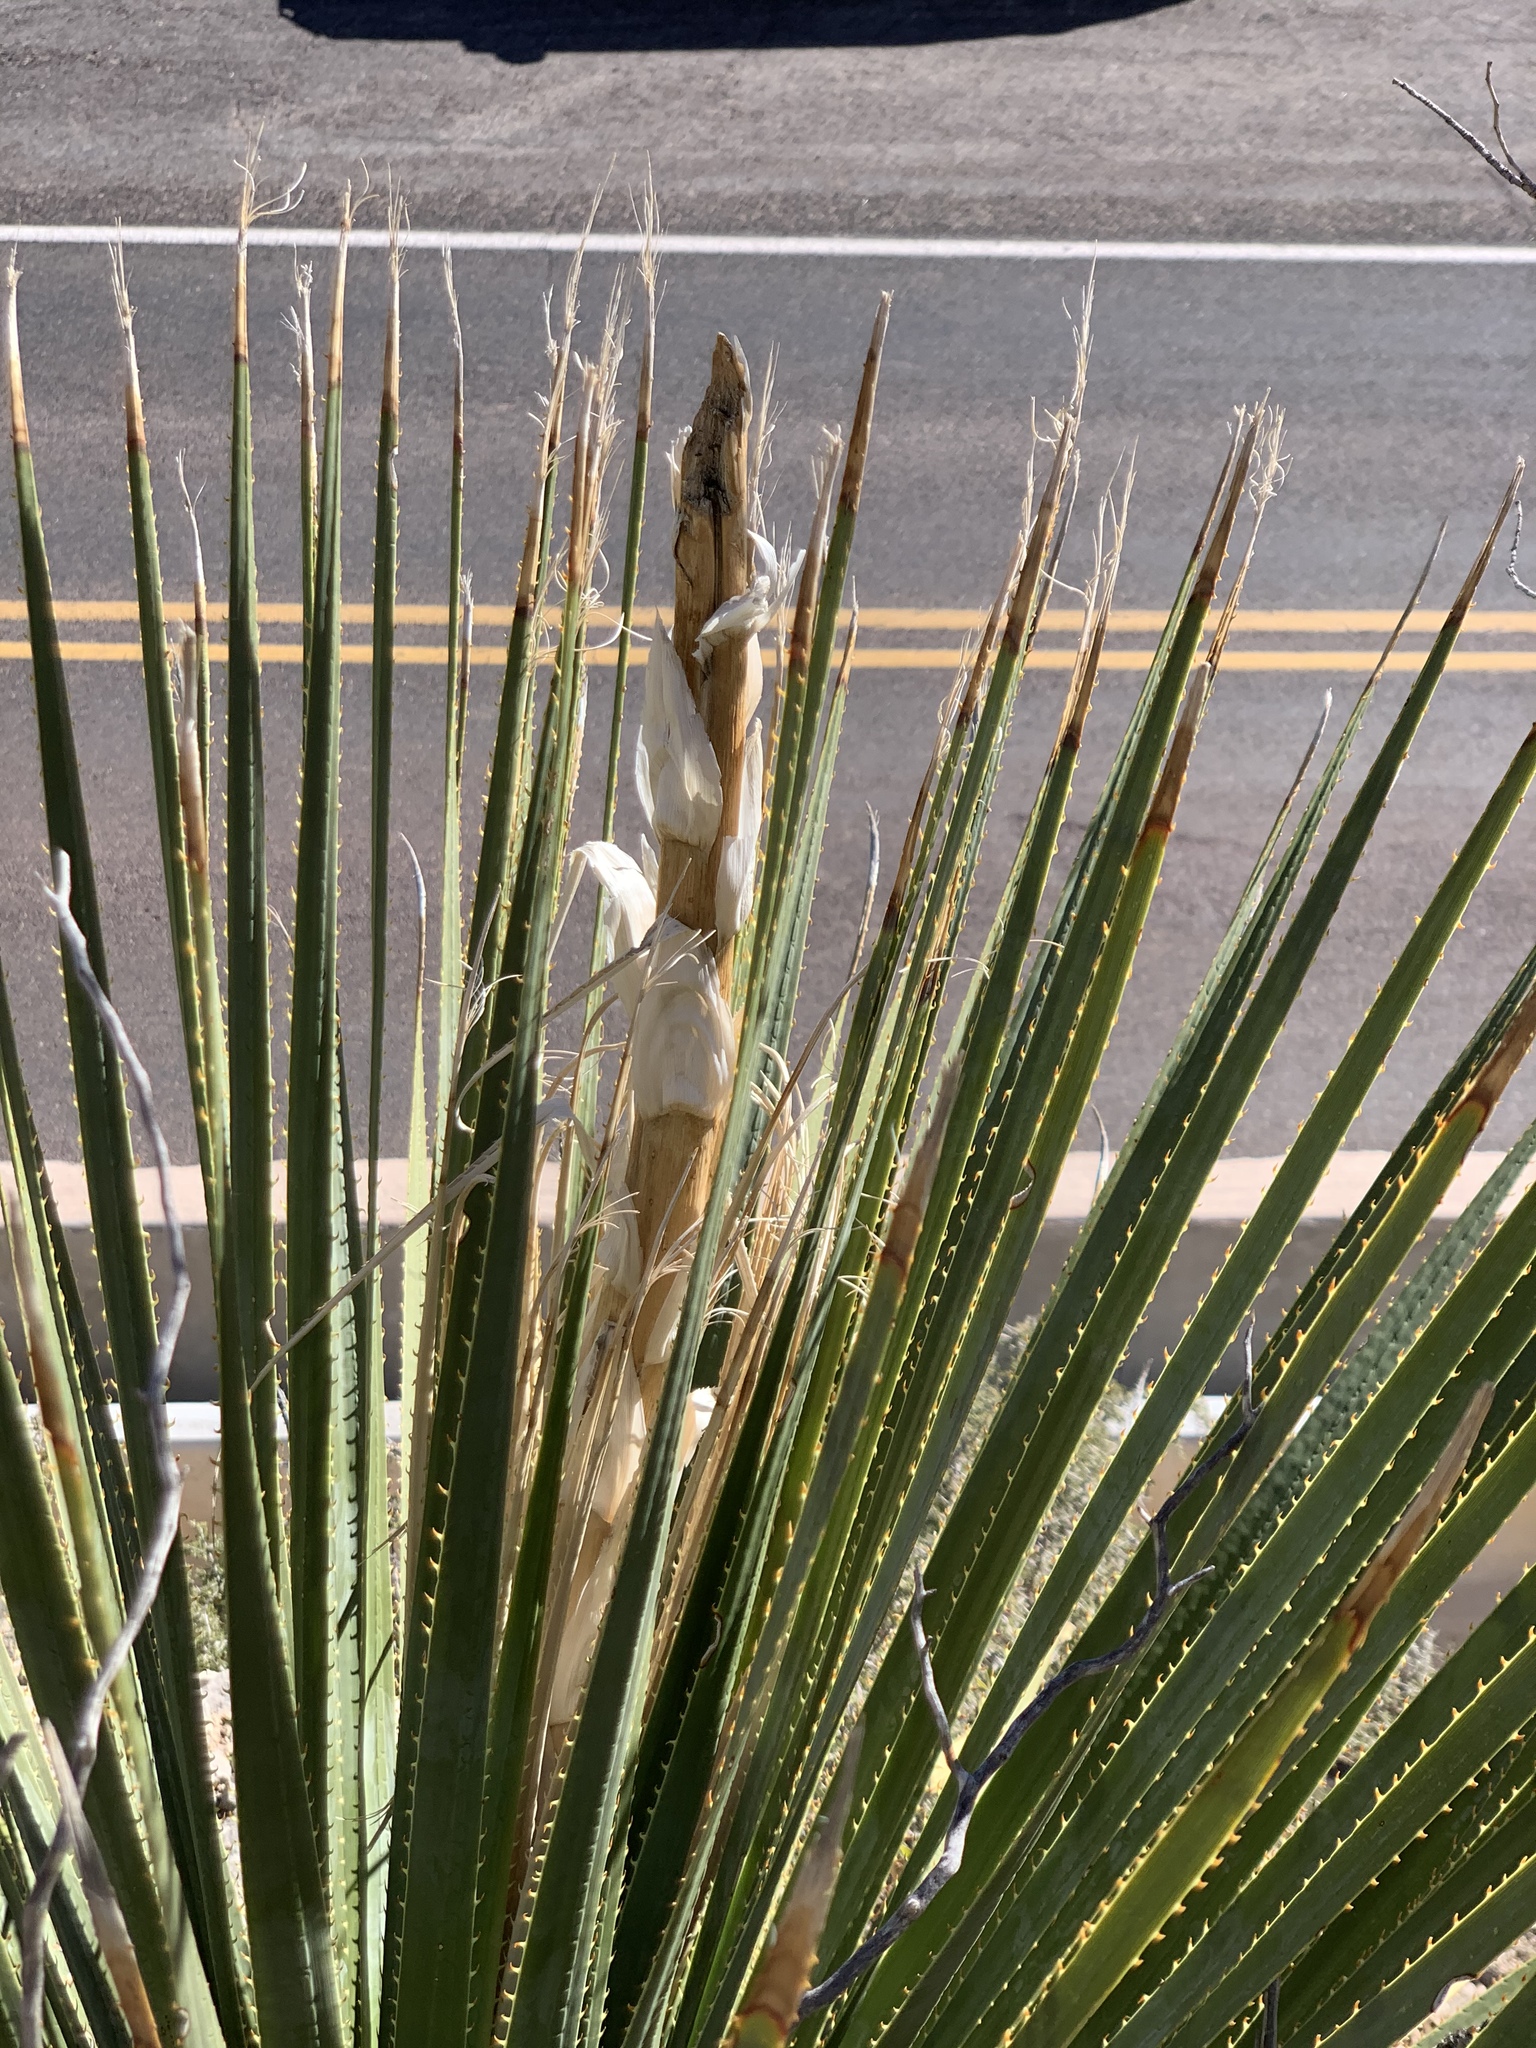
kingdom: Plantae
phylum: Tracheophyta
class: Liliopsida
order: Asparagales
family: Asparagaceae
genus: Dasylirion
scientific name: Dasylirion wheeleri
